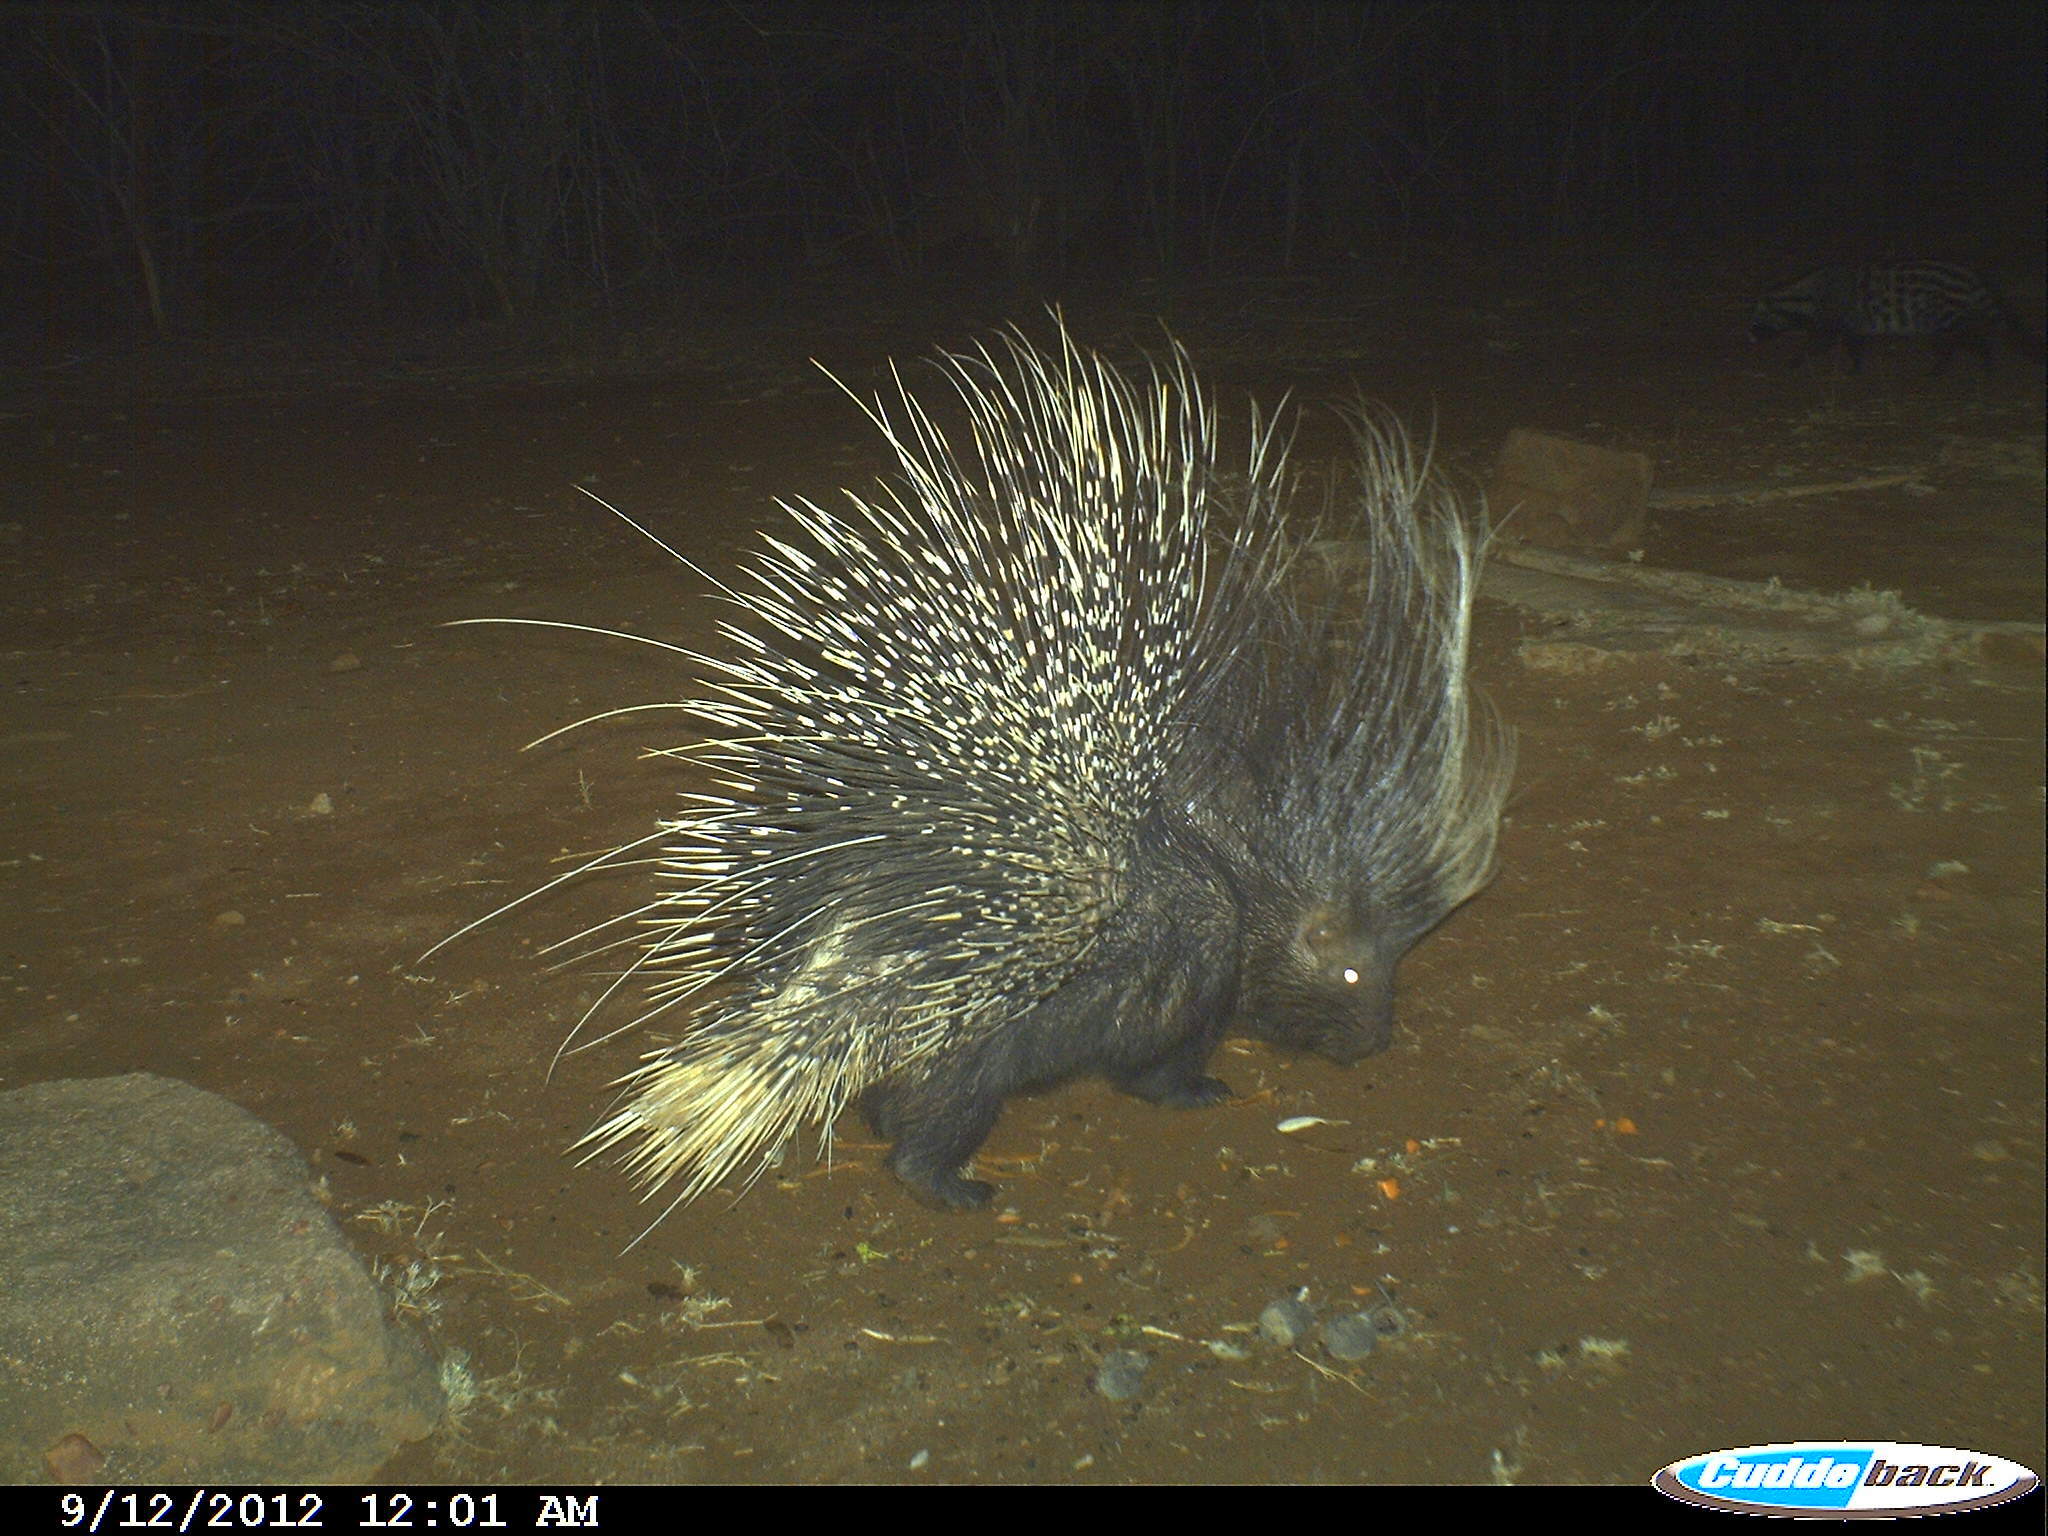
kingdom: Animalia
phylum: Chordata
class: Mammalia
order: Rodentia
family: Hystricidae
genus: Hystrix
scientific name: Hystrix africaeaustralis
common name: Cape porcupine
